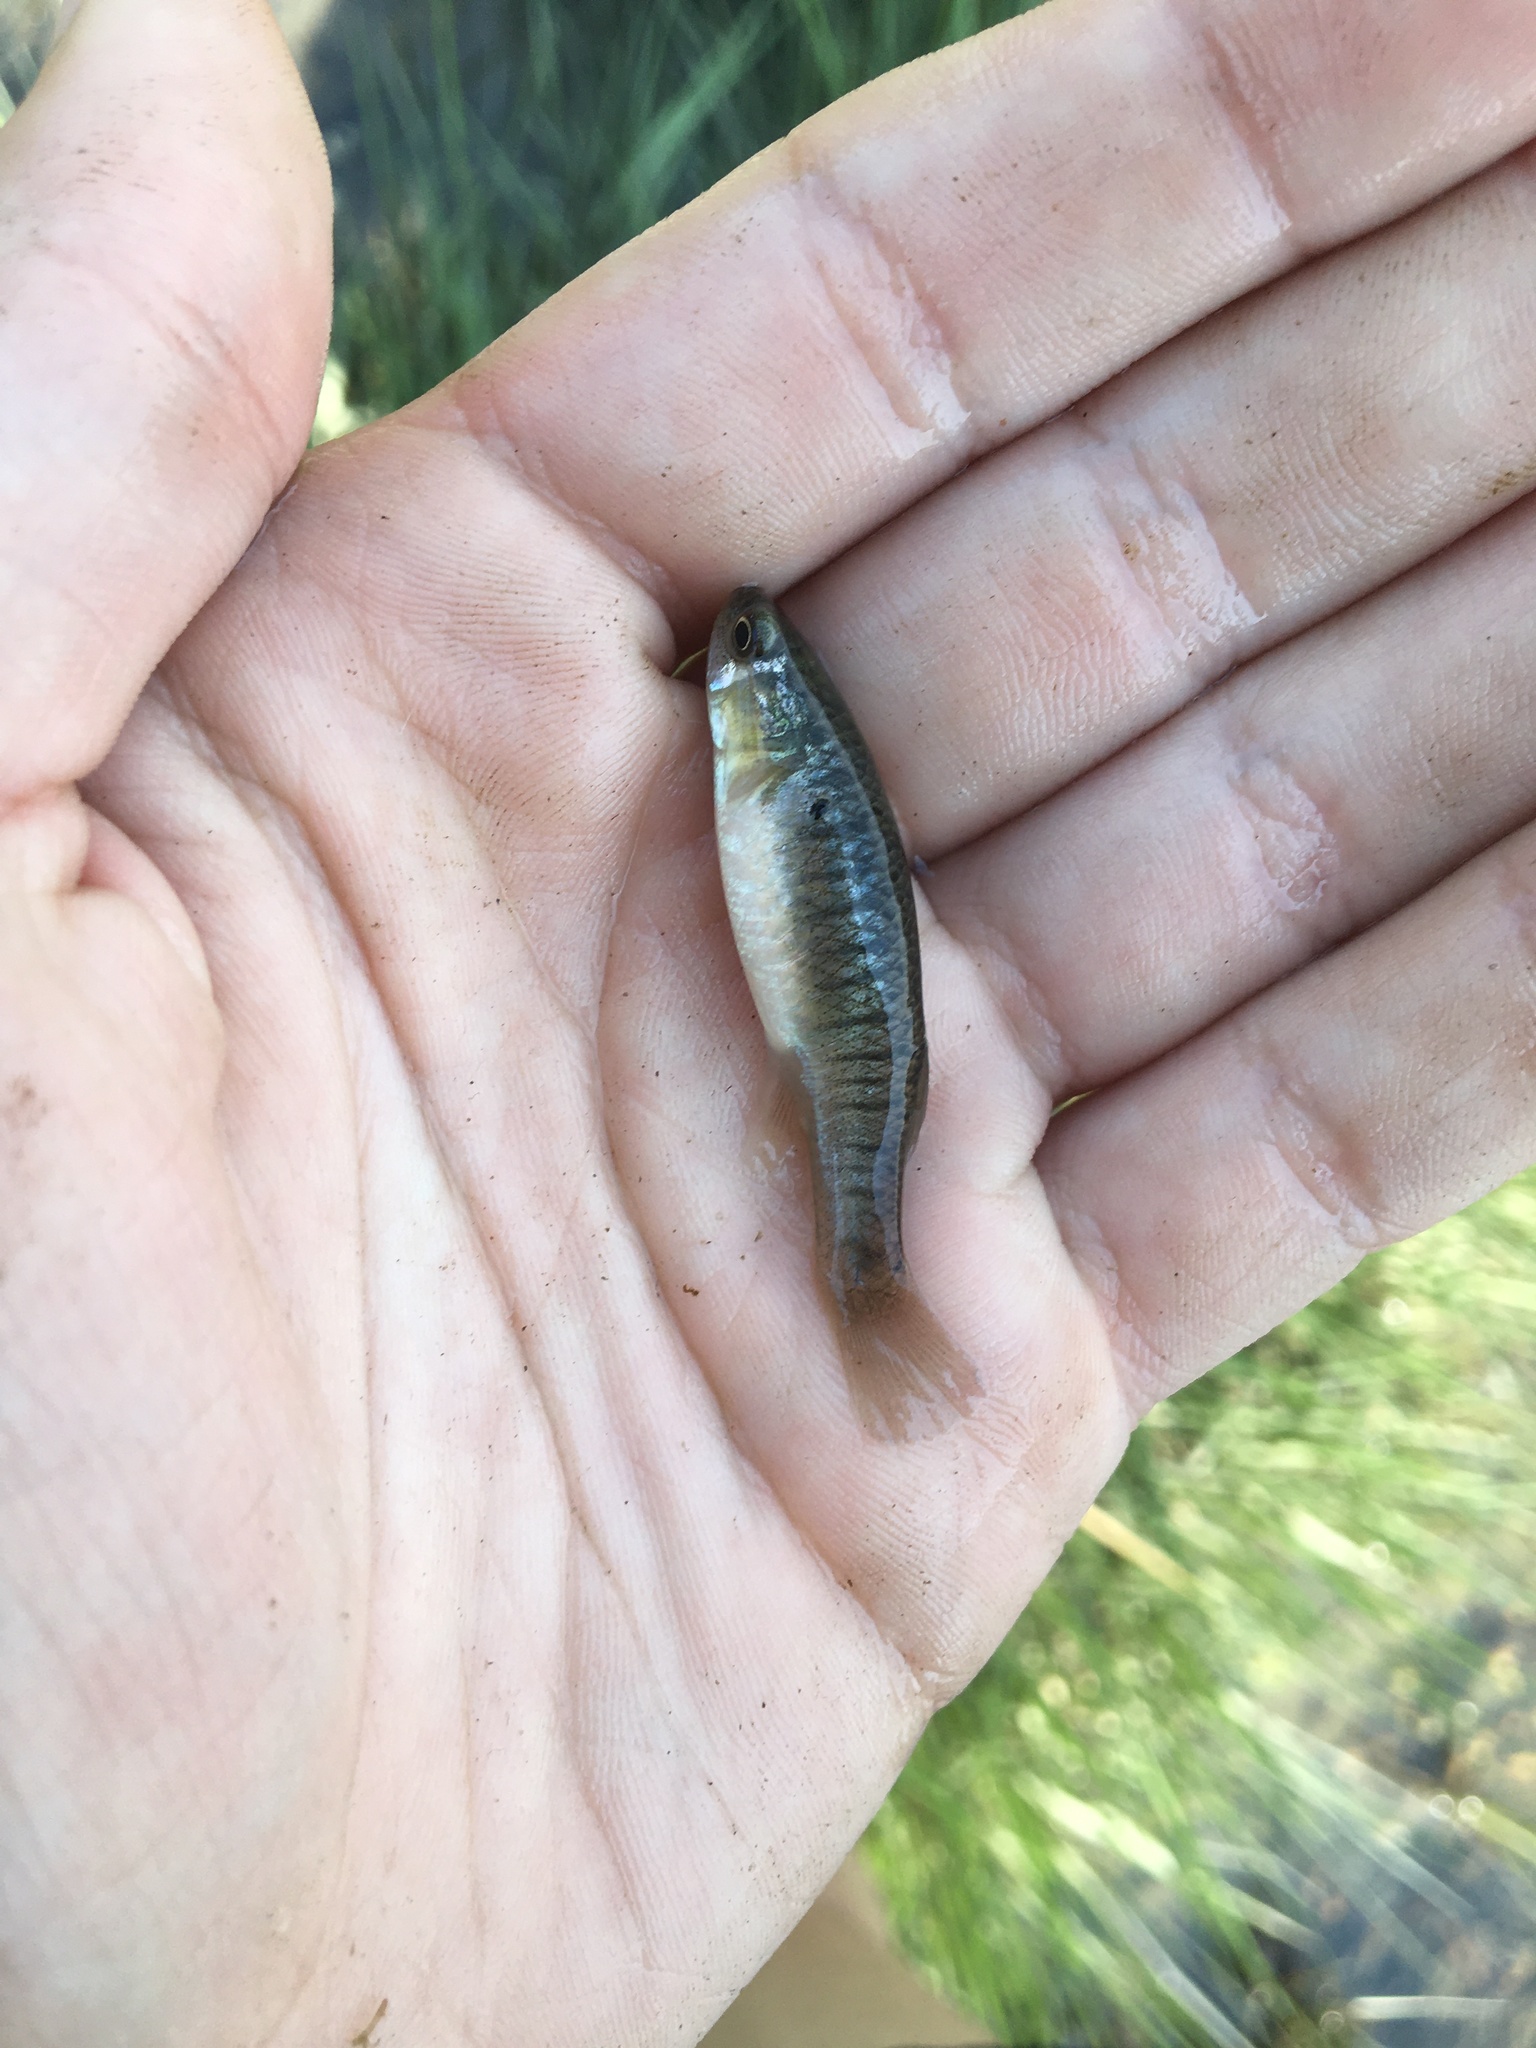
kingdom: Animalia
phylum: Chordata
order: Cyprinodontiformes
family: Fundulidae
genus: Fundulus
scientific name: Fundulus heteroclitus
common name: Mummichog
